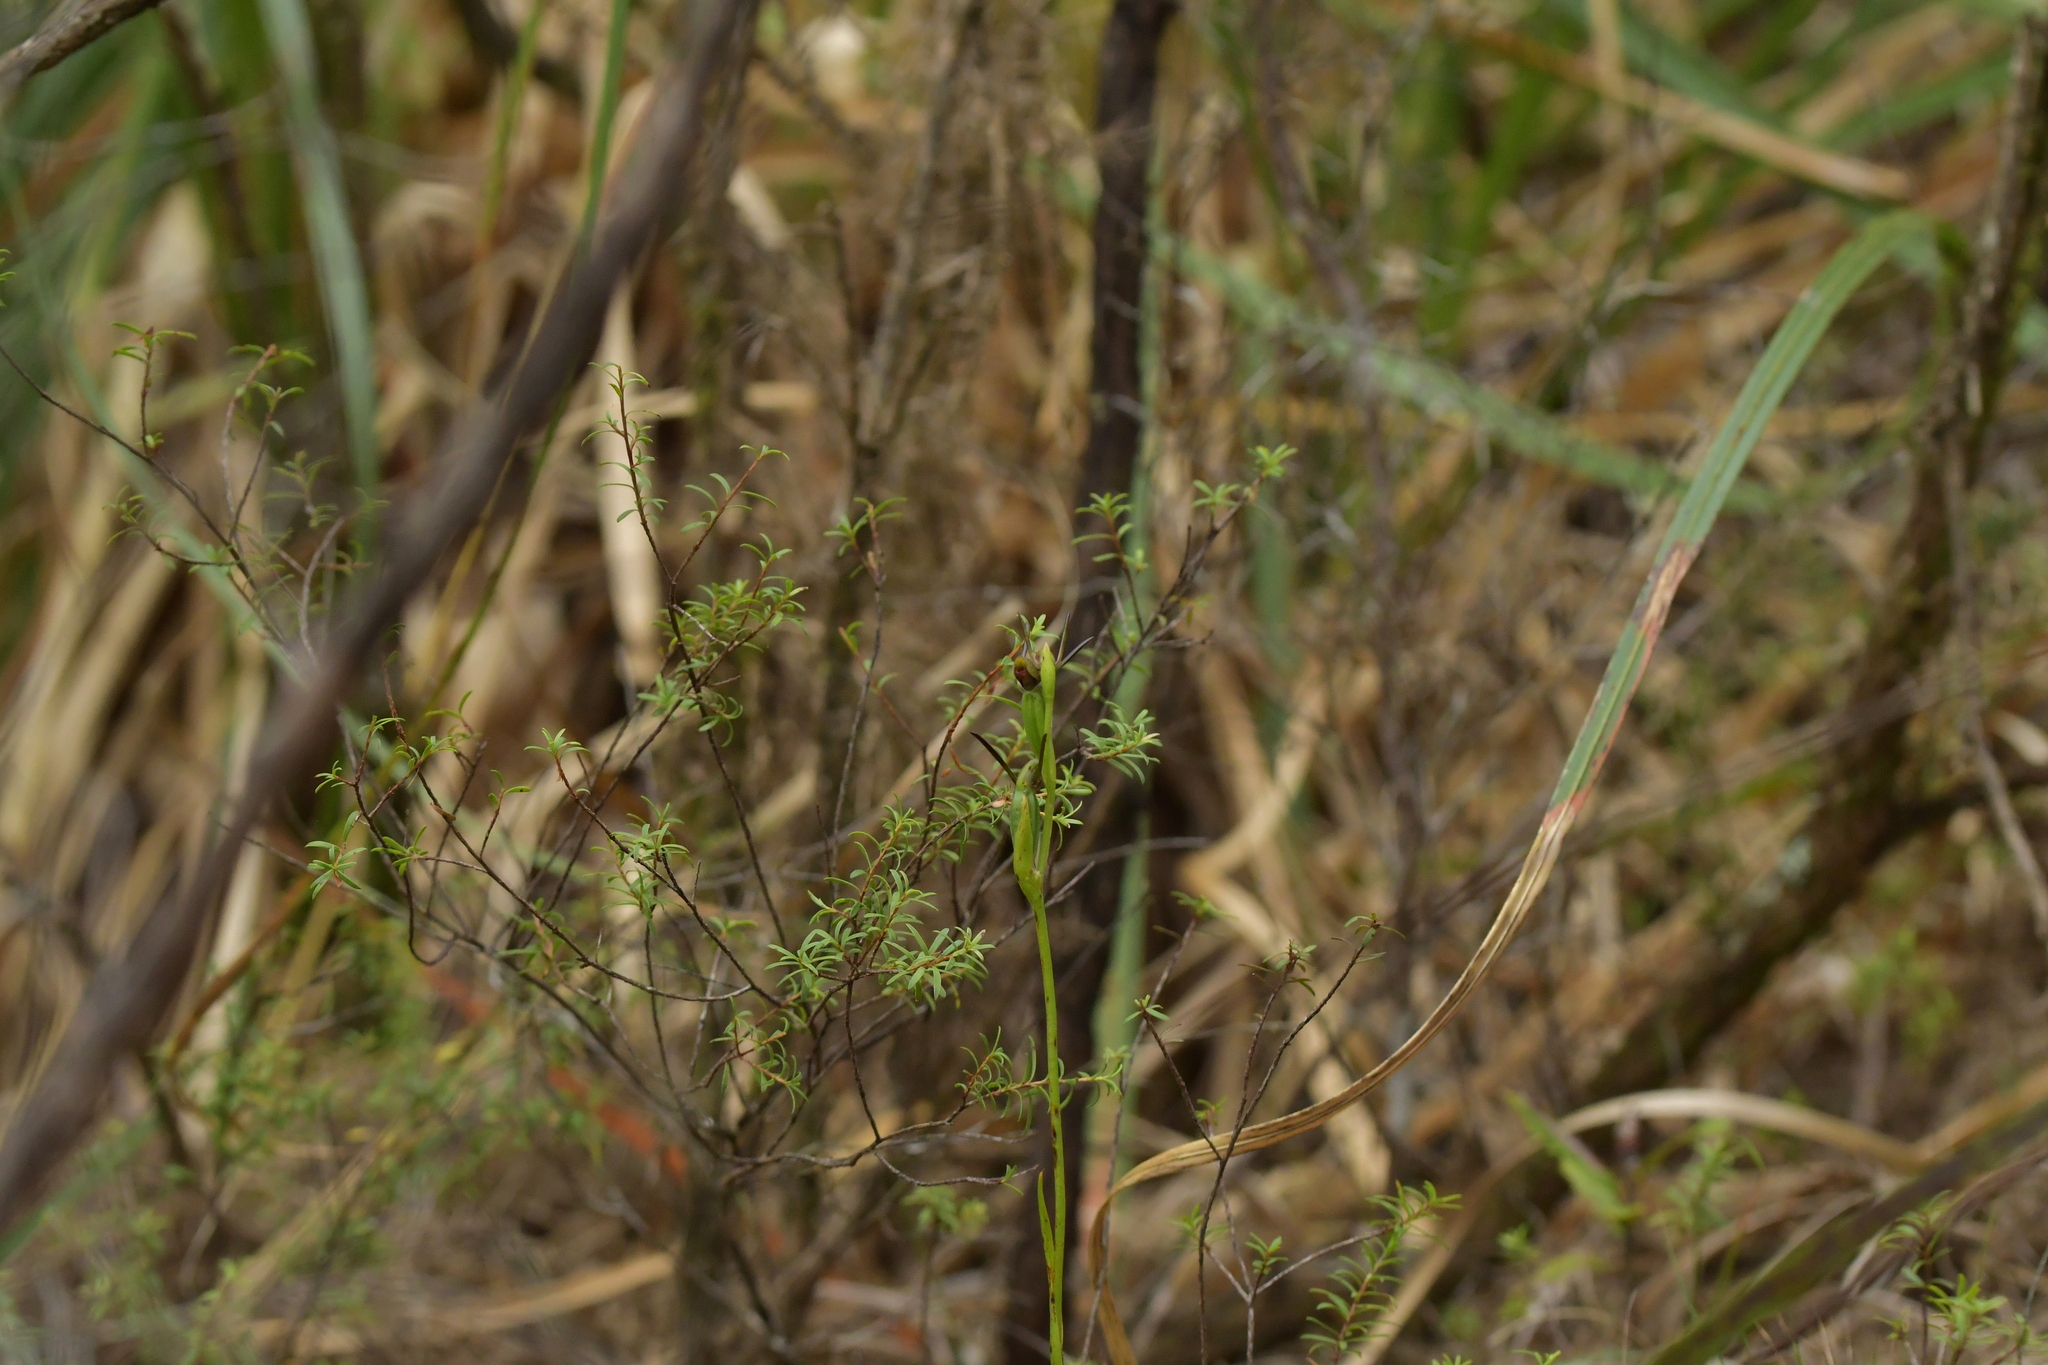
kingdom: Plantae
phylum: Tracheophyta
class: Liliopsida
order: Asparagales
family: Orchidaceae
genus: Orthoceras
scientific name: Orthoceras novae-zeelandiae
